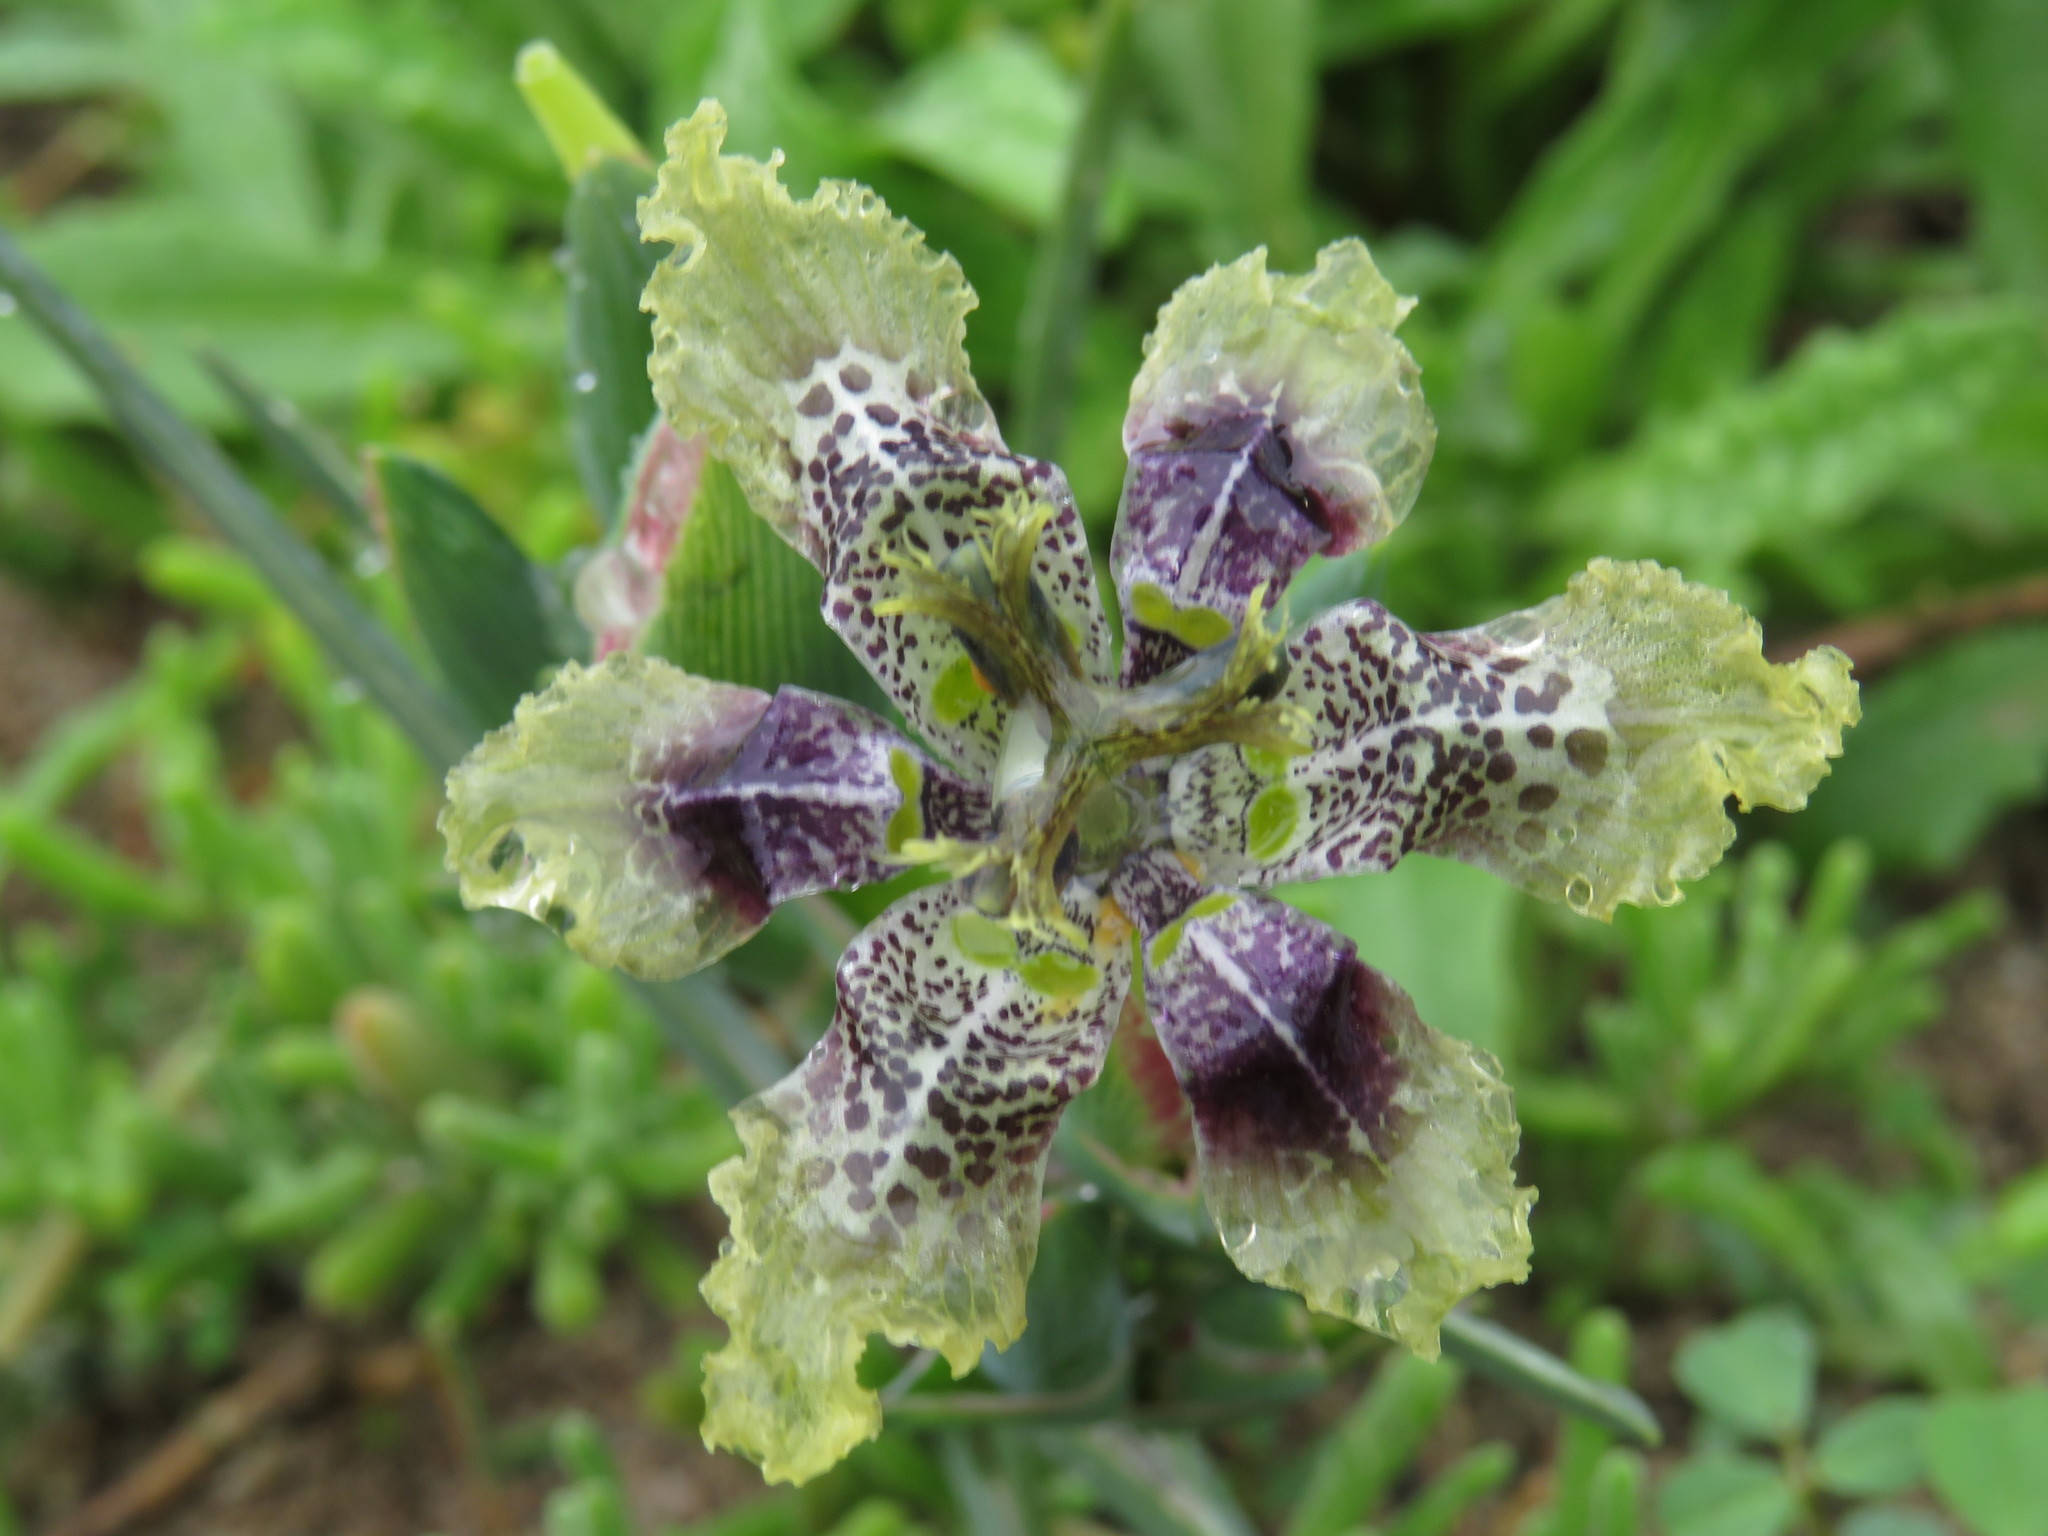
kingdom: Plantae
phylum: Tracheophyta
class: Liliopsida
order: Asparagales
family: Iridaceae
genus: Ferraria
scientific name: Ferraria densepunctulata
